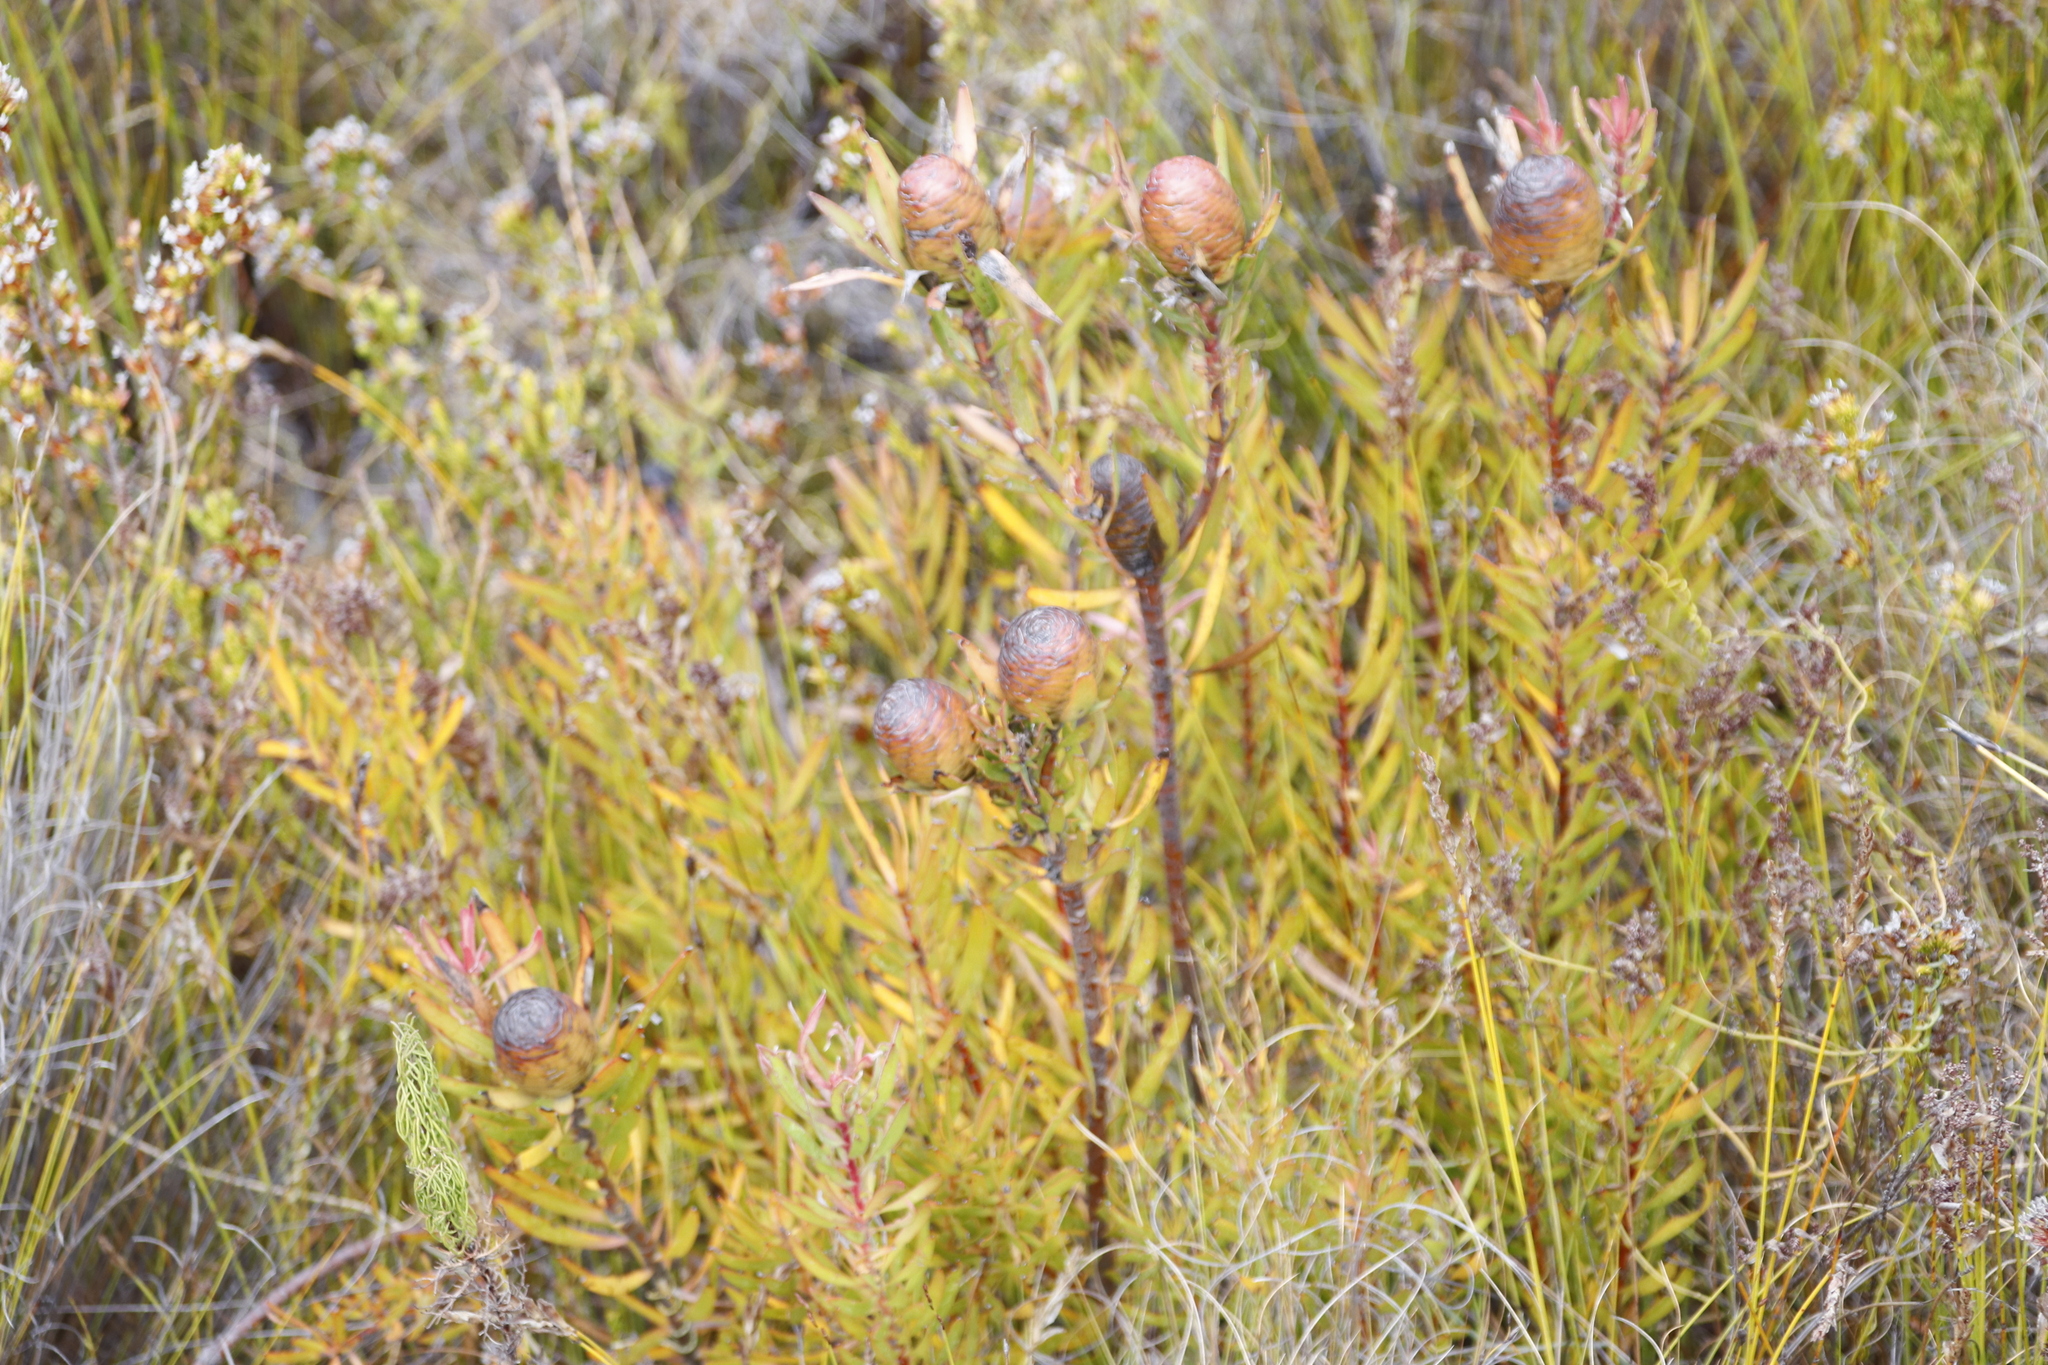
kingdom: Plantae
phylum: Tracheophyta
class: Magnoliopsida
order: Proteales
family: Proteaceae
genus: Leucadendron
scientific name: Leucadendron spissifolium
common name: Spear-leaf conebush
